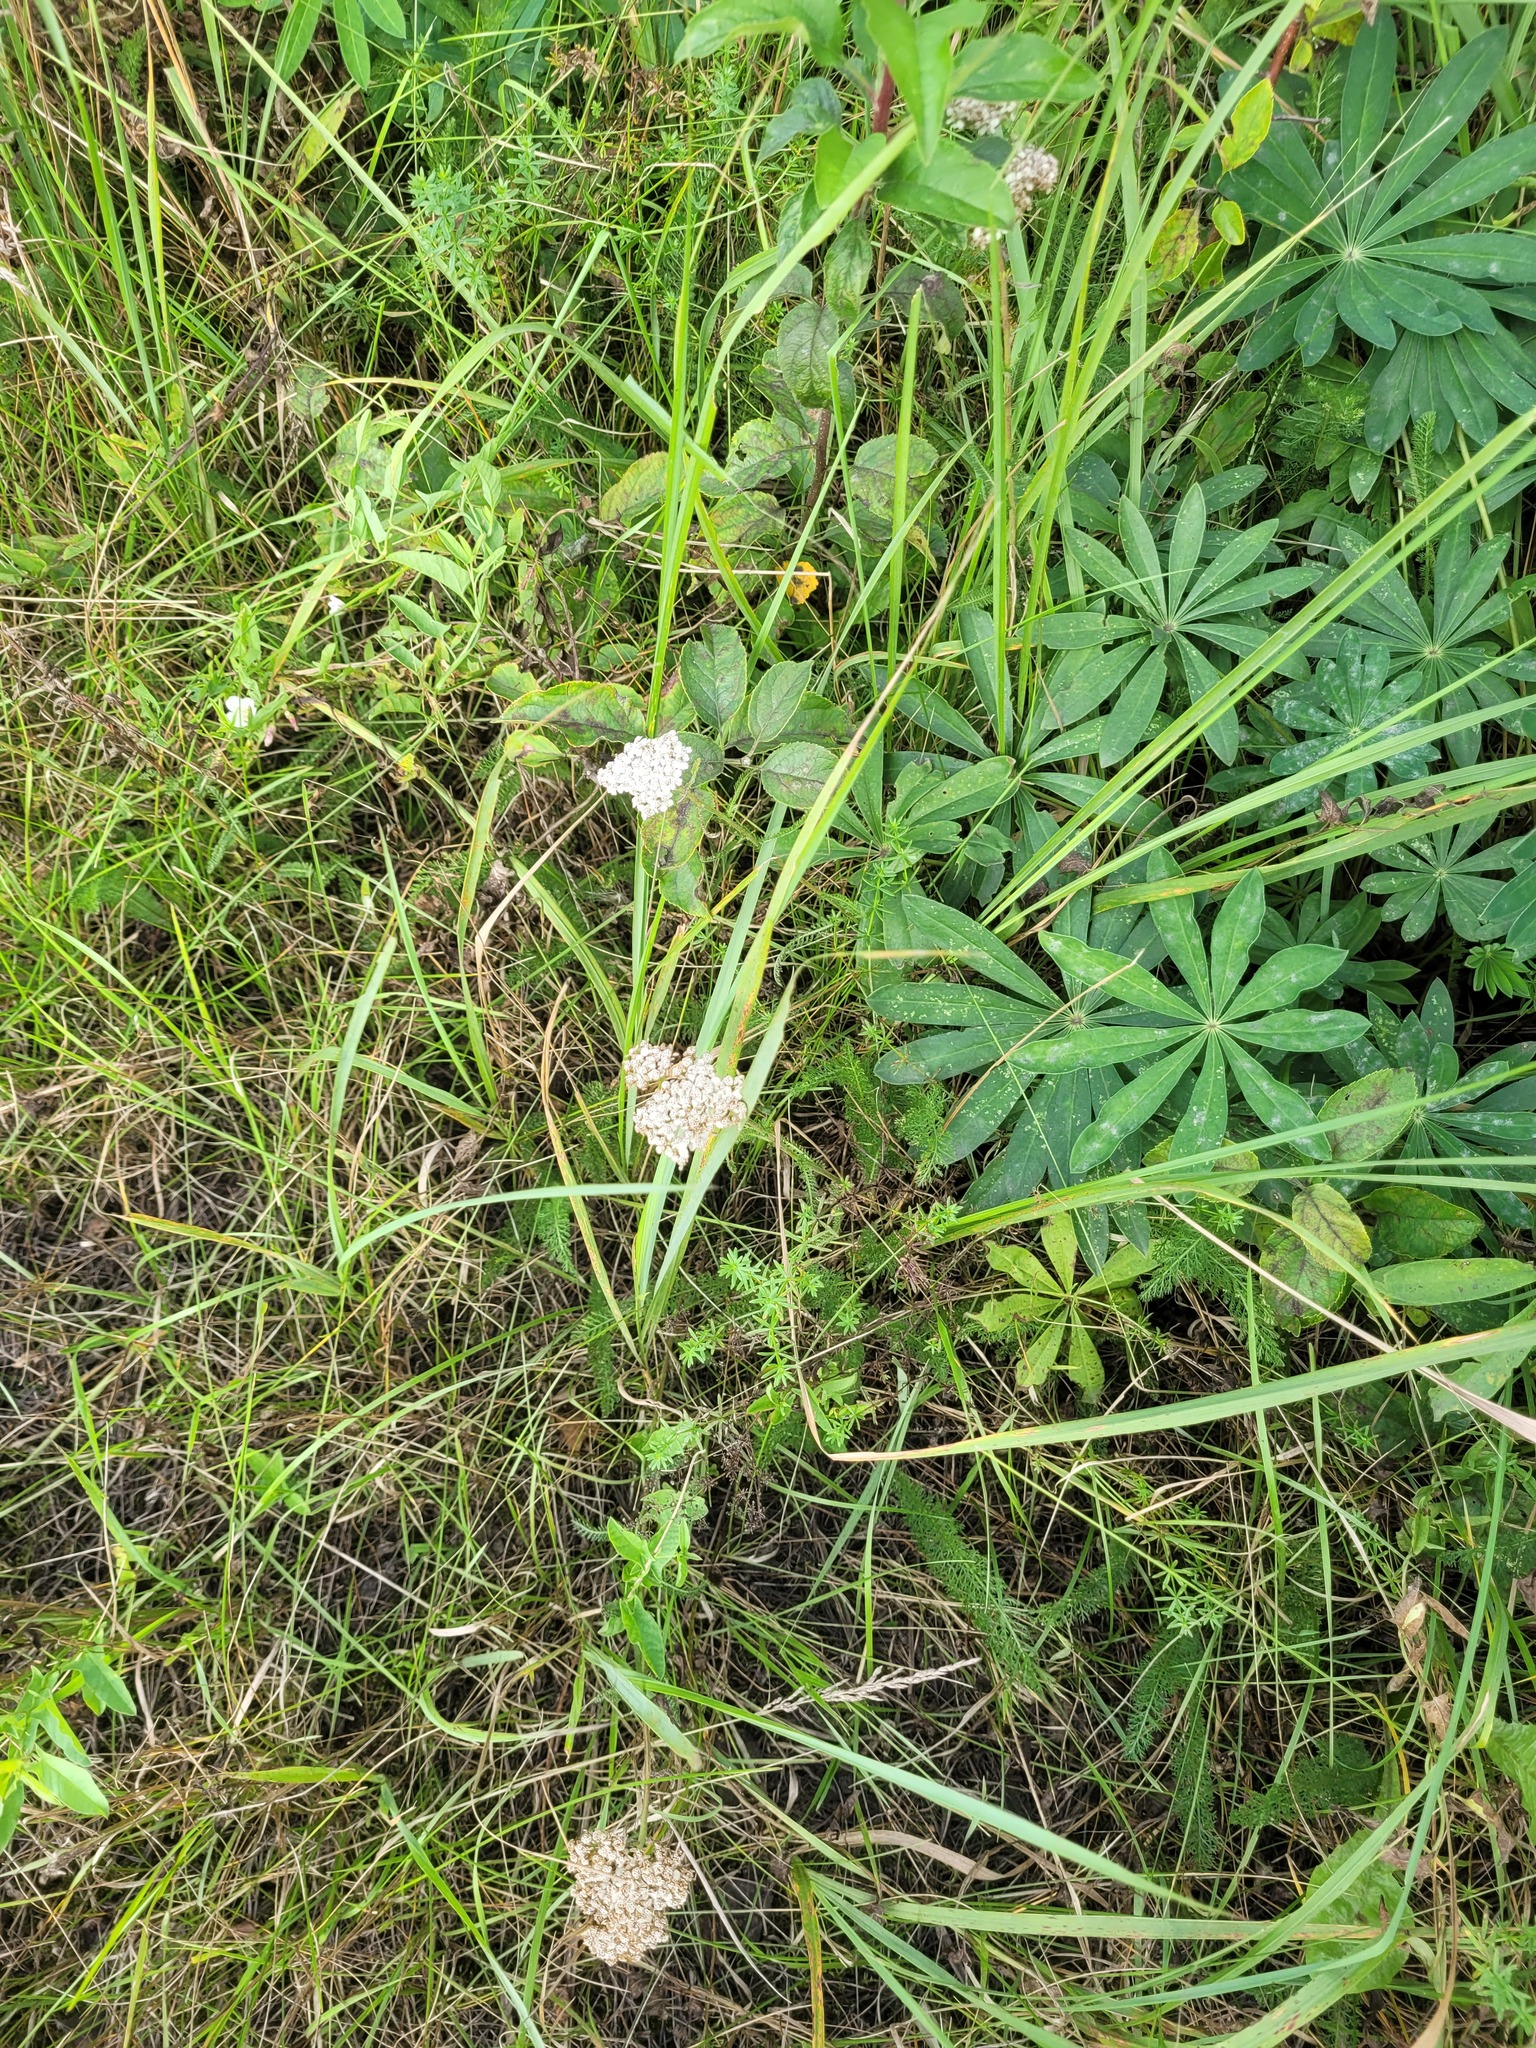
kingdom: Plantae
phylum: Tracheophyta
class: Magnoliopsida
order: Asterales
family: Asteraceae
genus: Achillea
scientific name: Achillea millefolium
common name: Yarrow
